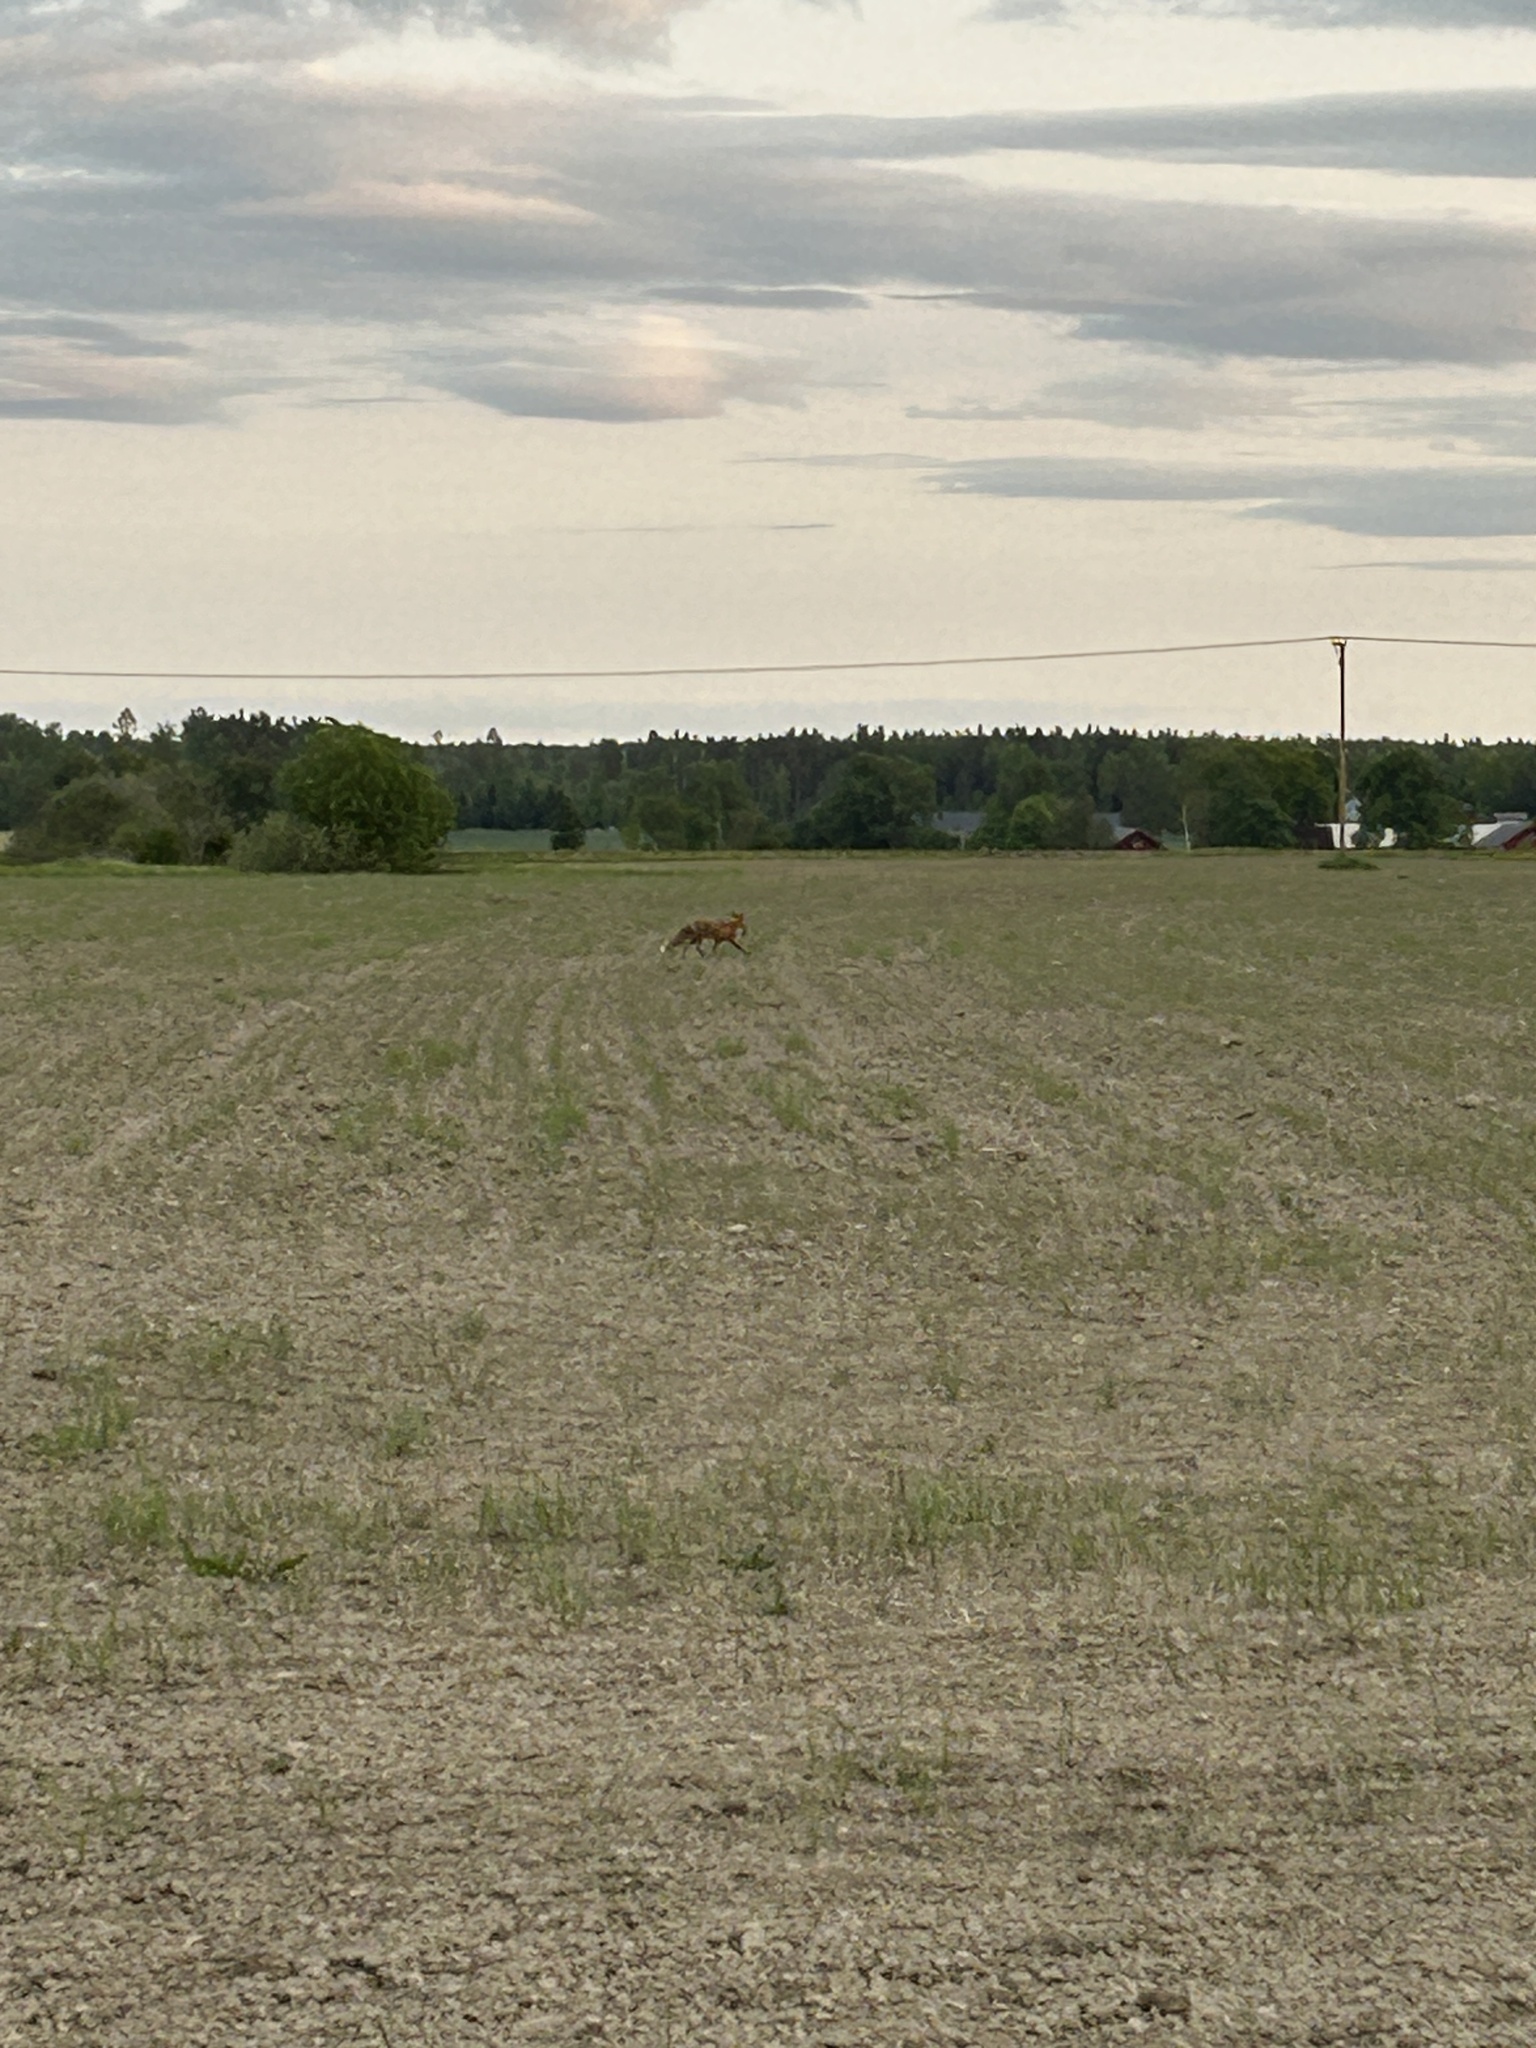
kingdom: Animalia
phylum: Chordata
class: Mammalia
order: Carnivora
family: Canidae
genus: Vulpes
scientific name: Vulpes vulpes
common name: Red fox
